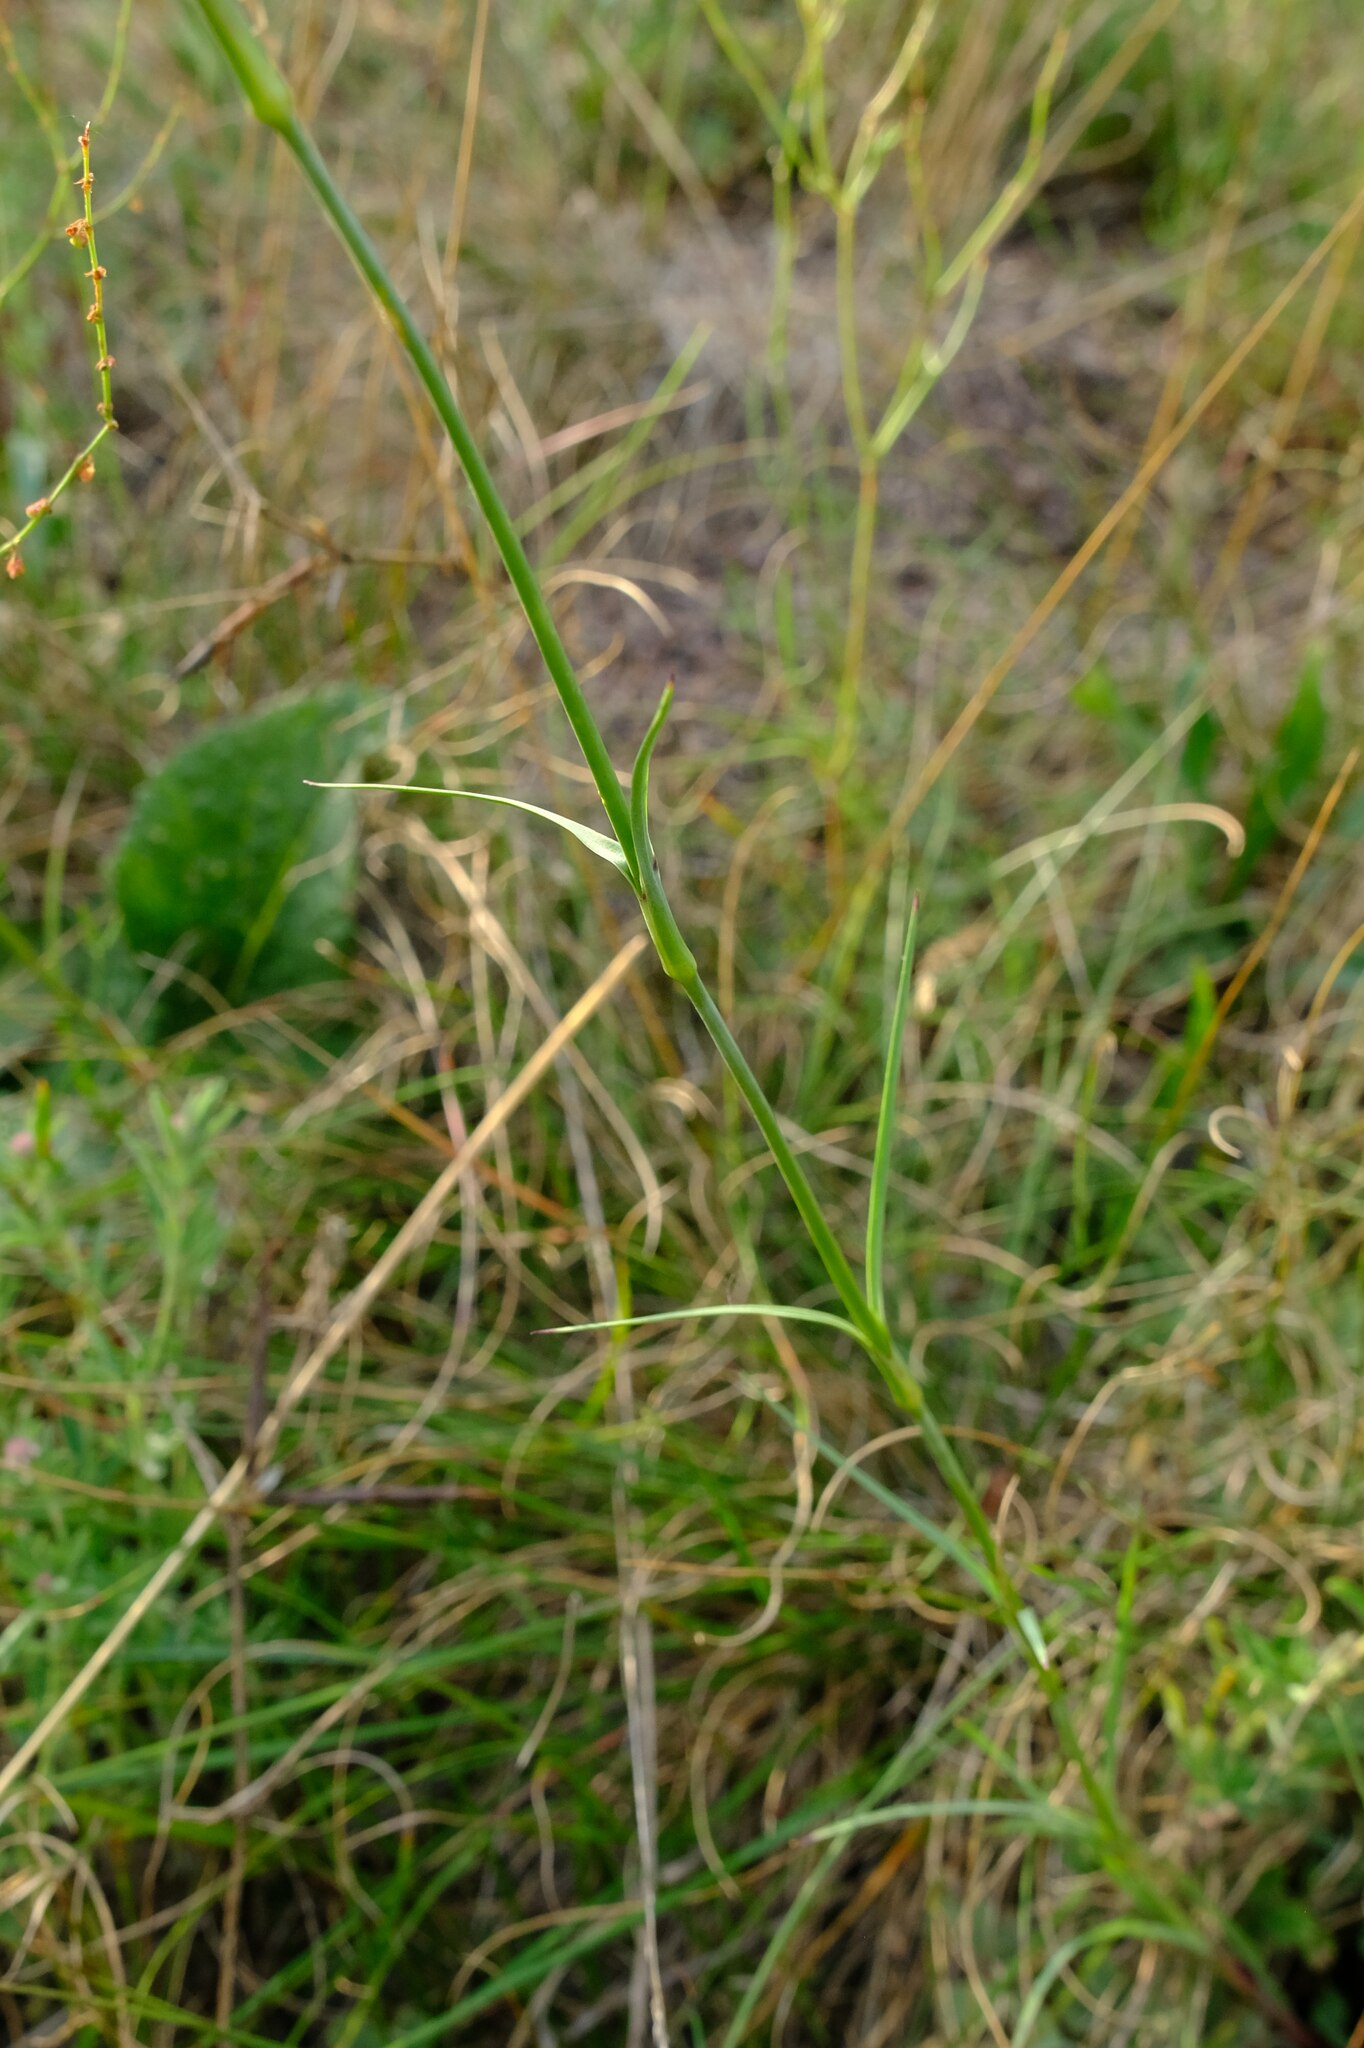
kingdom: Plantae
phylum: Tracheophyta
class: Magnoliopsida
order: Caryophyllales
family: Caryophyllaceae
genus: Dianthus
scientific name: Dianthus carthusianorum
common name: Carthusian pink
